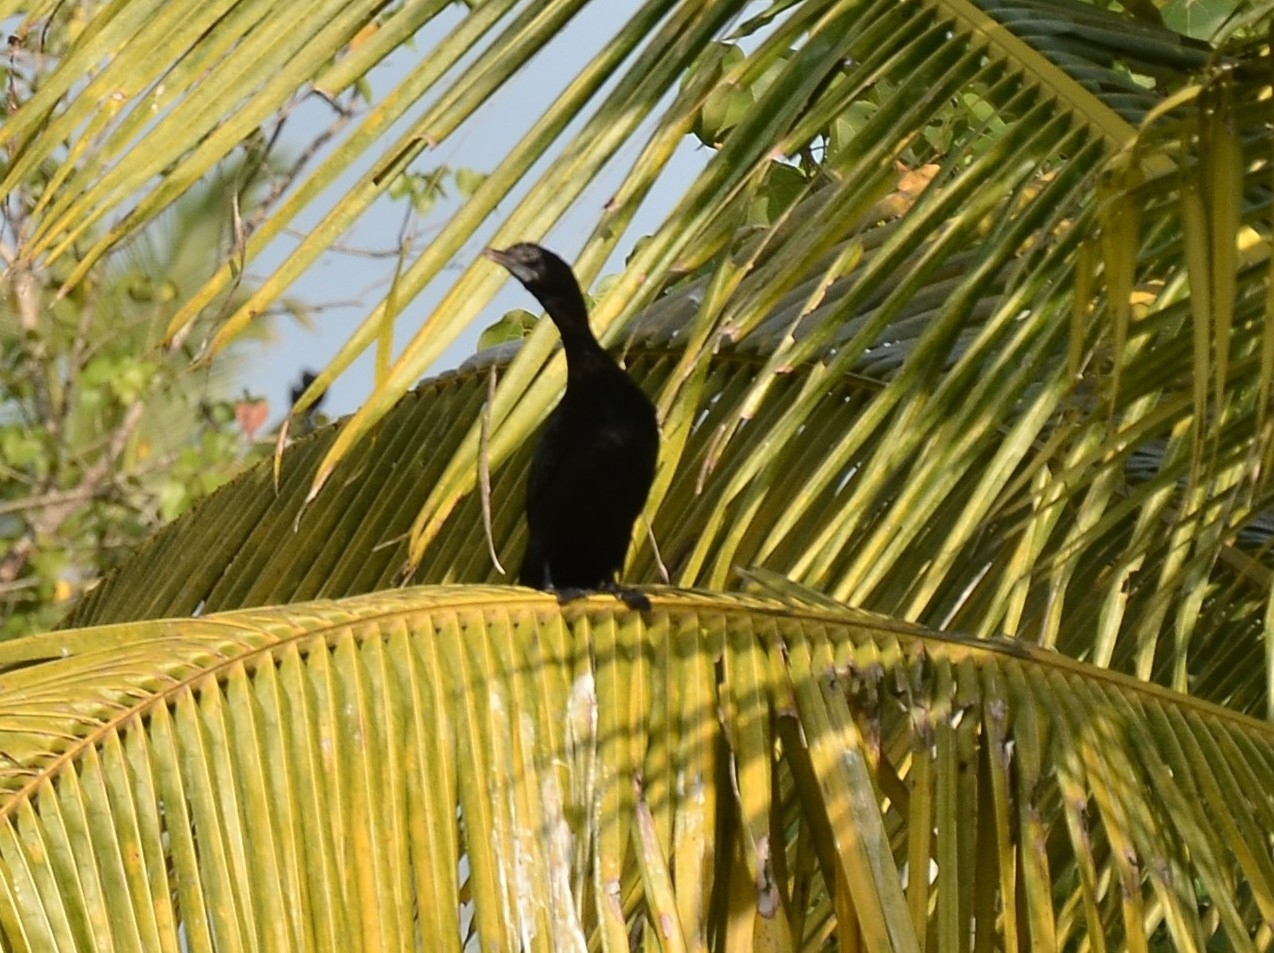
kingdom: Animalia
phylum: Chordata
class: Aves
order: Suliformes
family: Phalacrocoracidae
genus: Microcarbo
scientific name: Microcarbo niger
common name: Little cormorant
